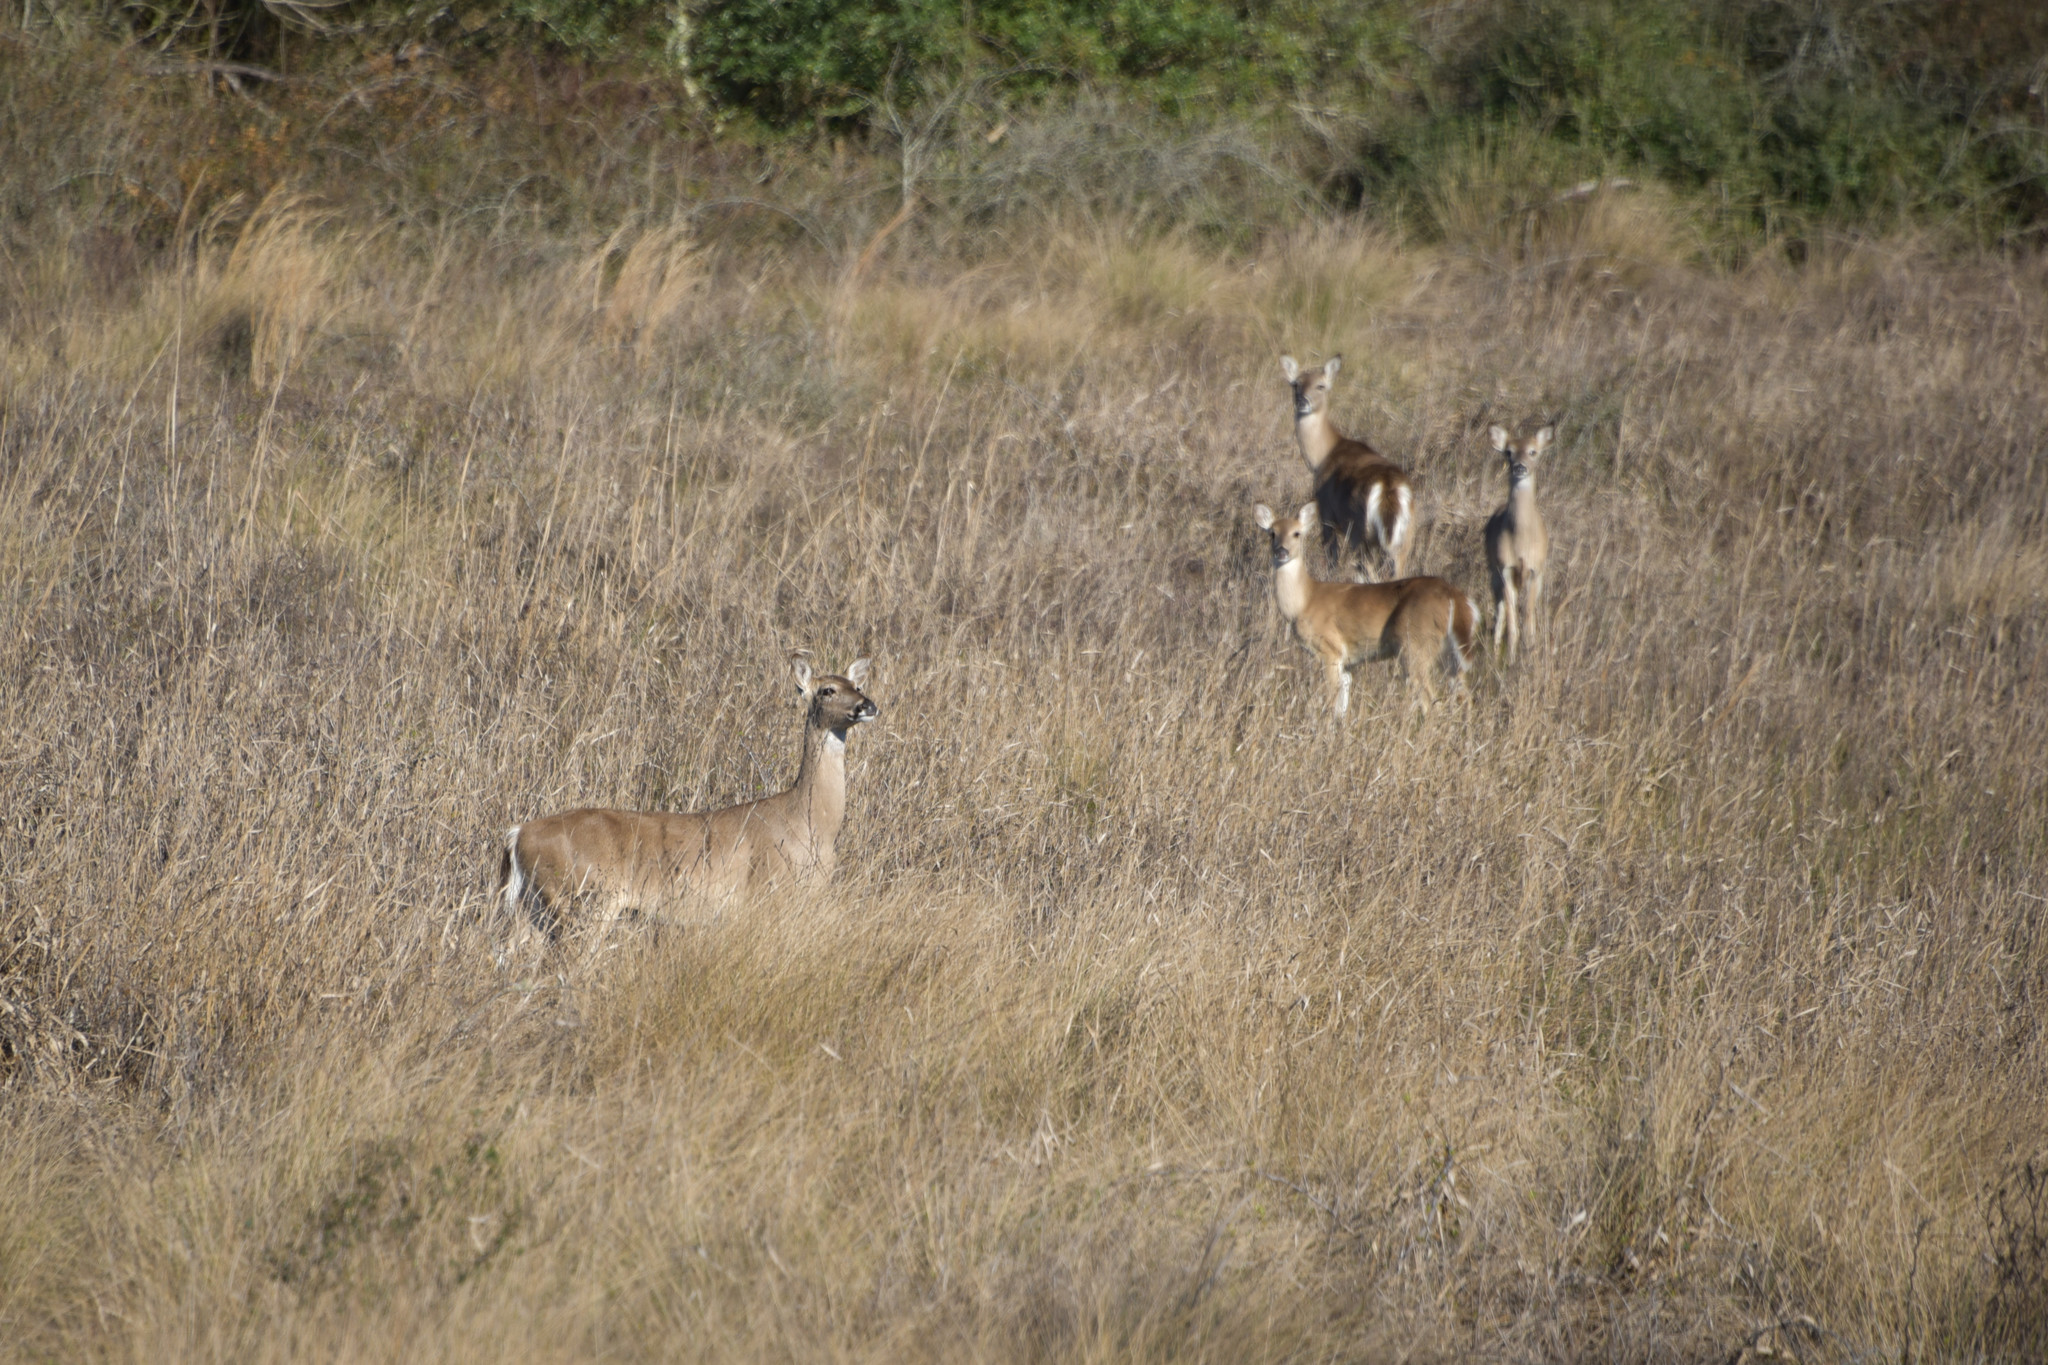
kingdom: Animalia
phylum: Chordata
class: Mammalia
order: Artiodactyla
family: Cervidae
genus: Odocoileus
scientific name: Odocoileus virginianus
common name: White-tailed deer
